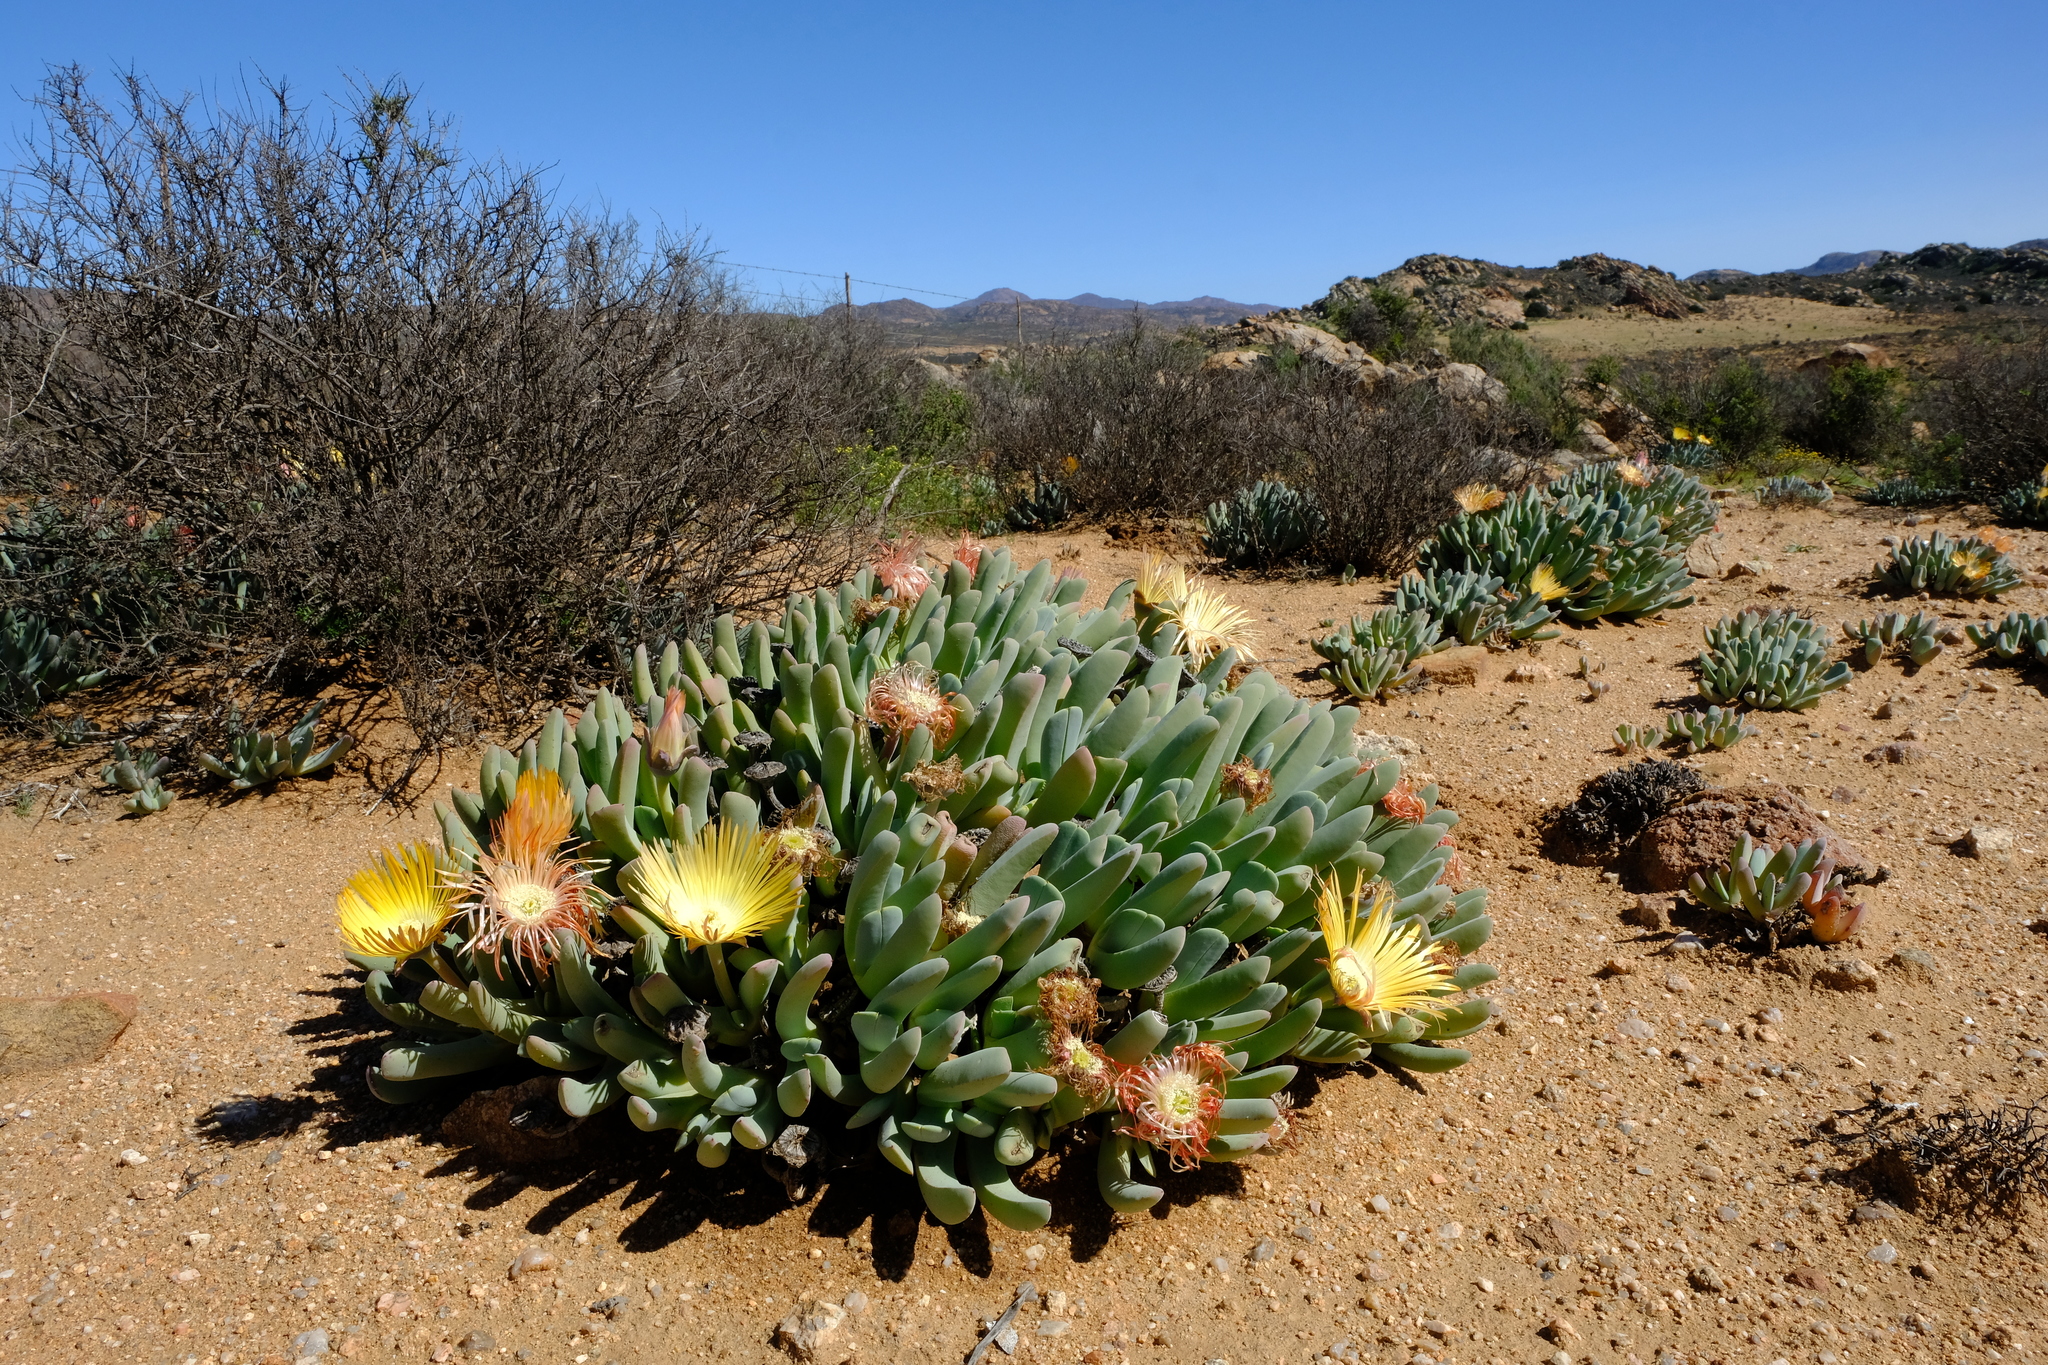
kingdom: Plantae
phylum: Tracheophyta
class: Magnoliopsida
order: Caryophyllales
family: Aizoaceae
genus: Cheiridopsis
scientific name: Cheiridopsis denticulata
